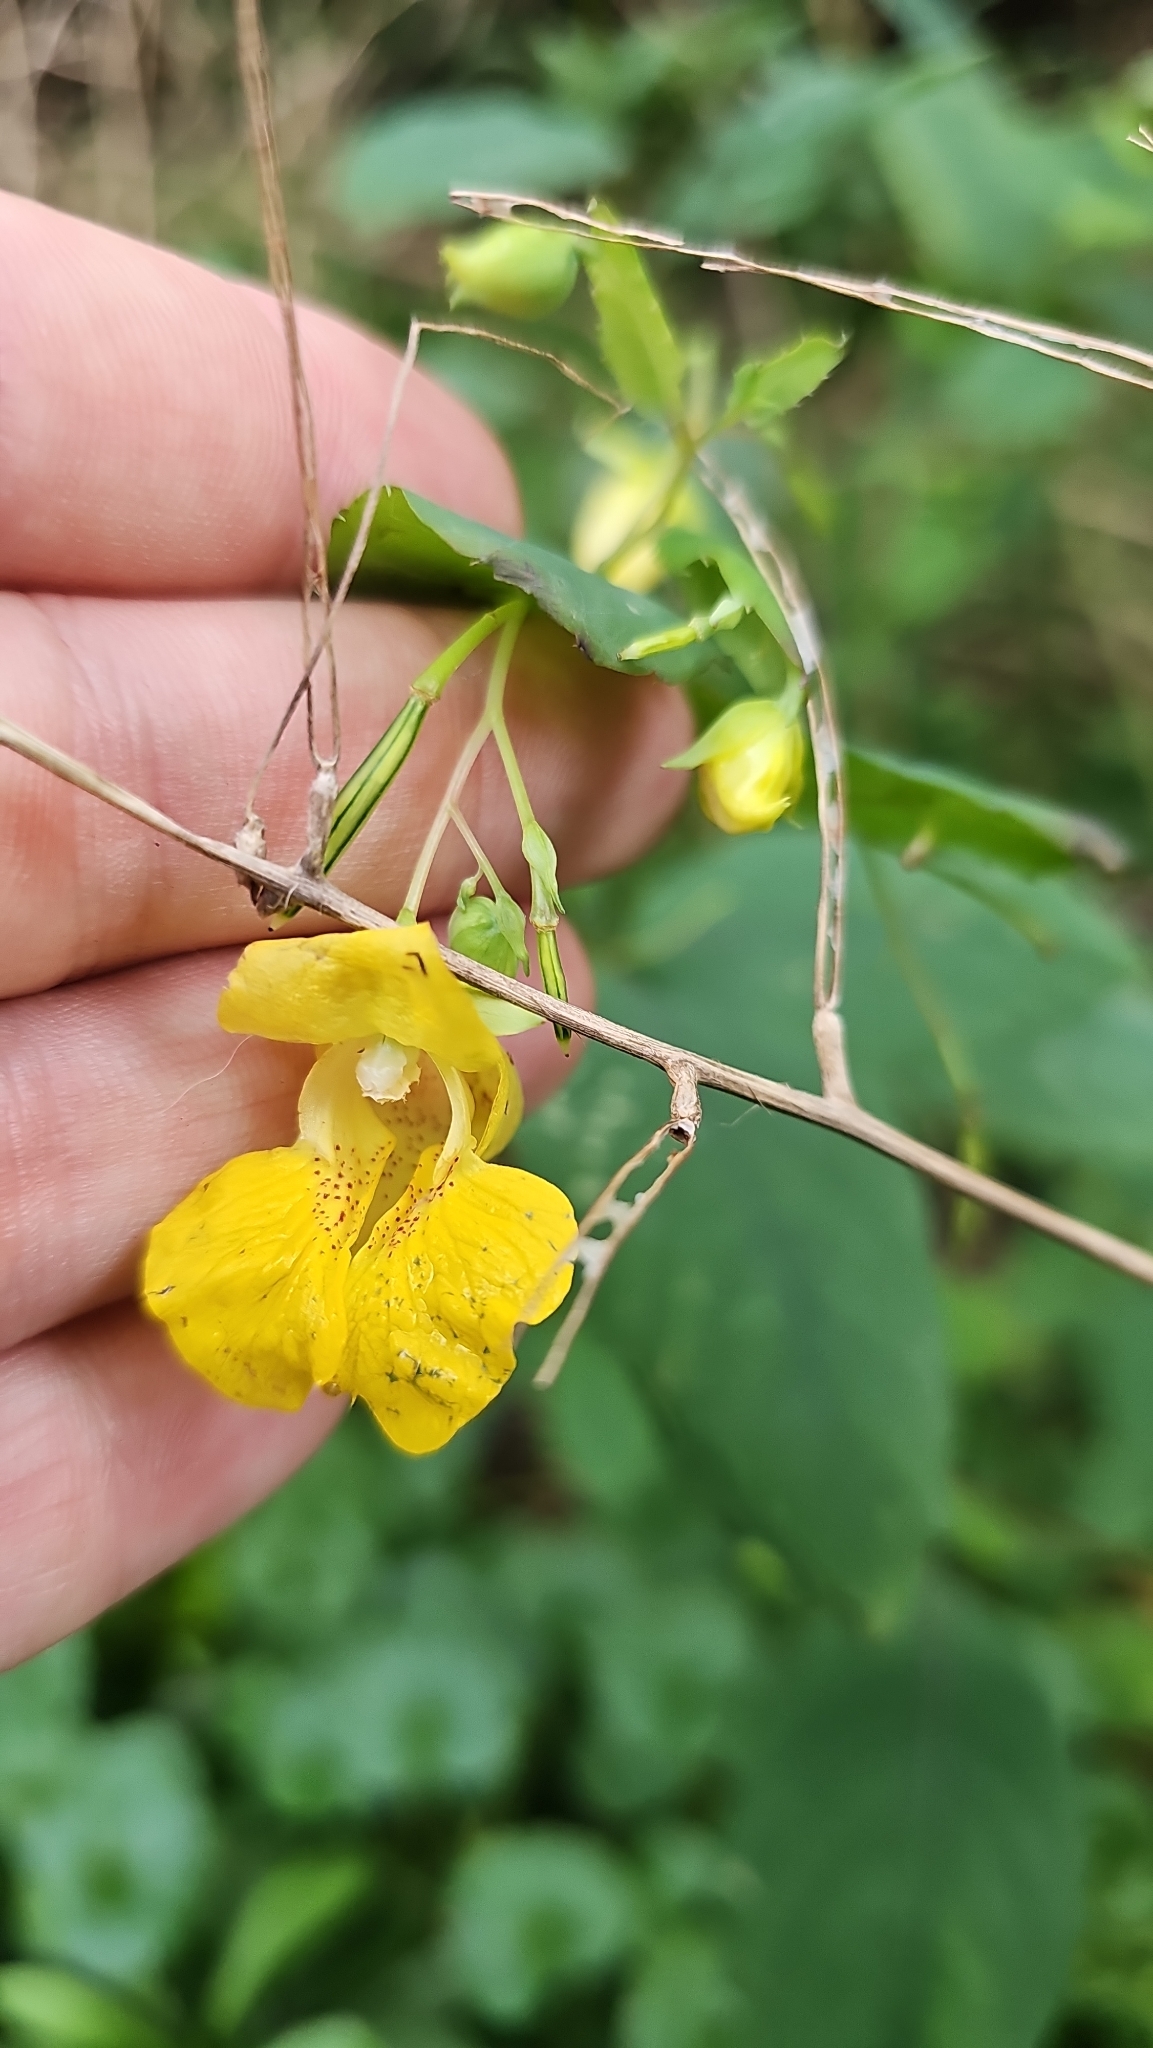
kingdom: Plantae
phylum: Tracheophyta
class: Magnoliopsida
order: Ericales
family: Balsaminaceae
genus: Impatiens
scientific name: Impatiens pallida
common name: Pale snapweed
